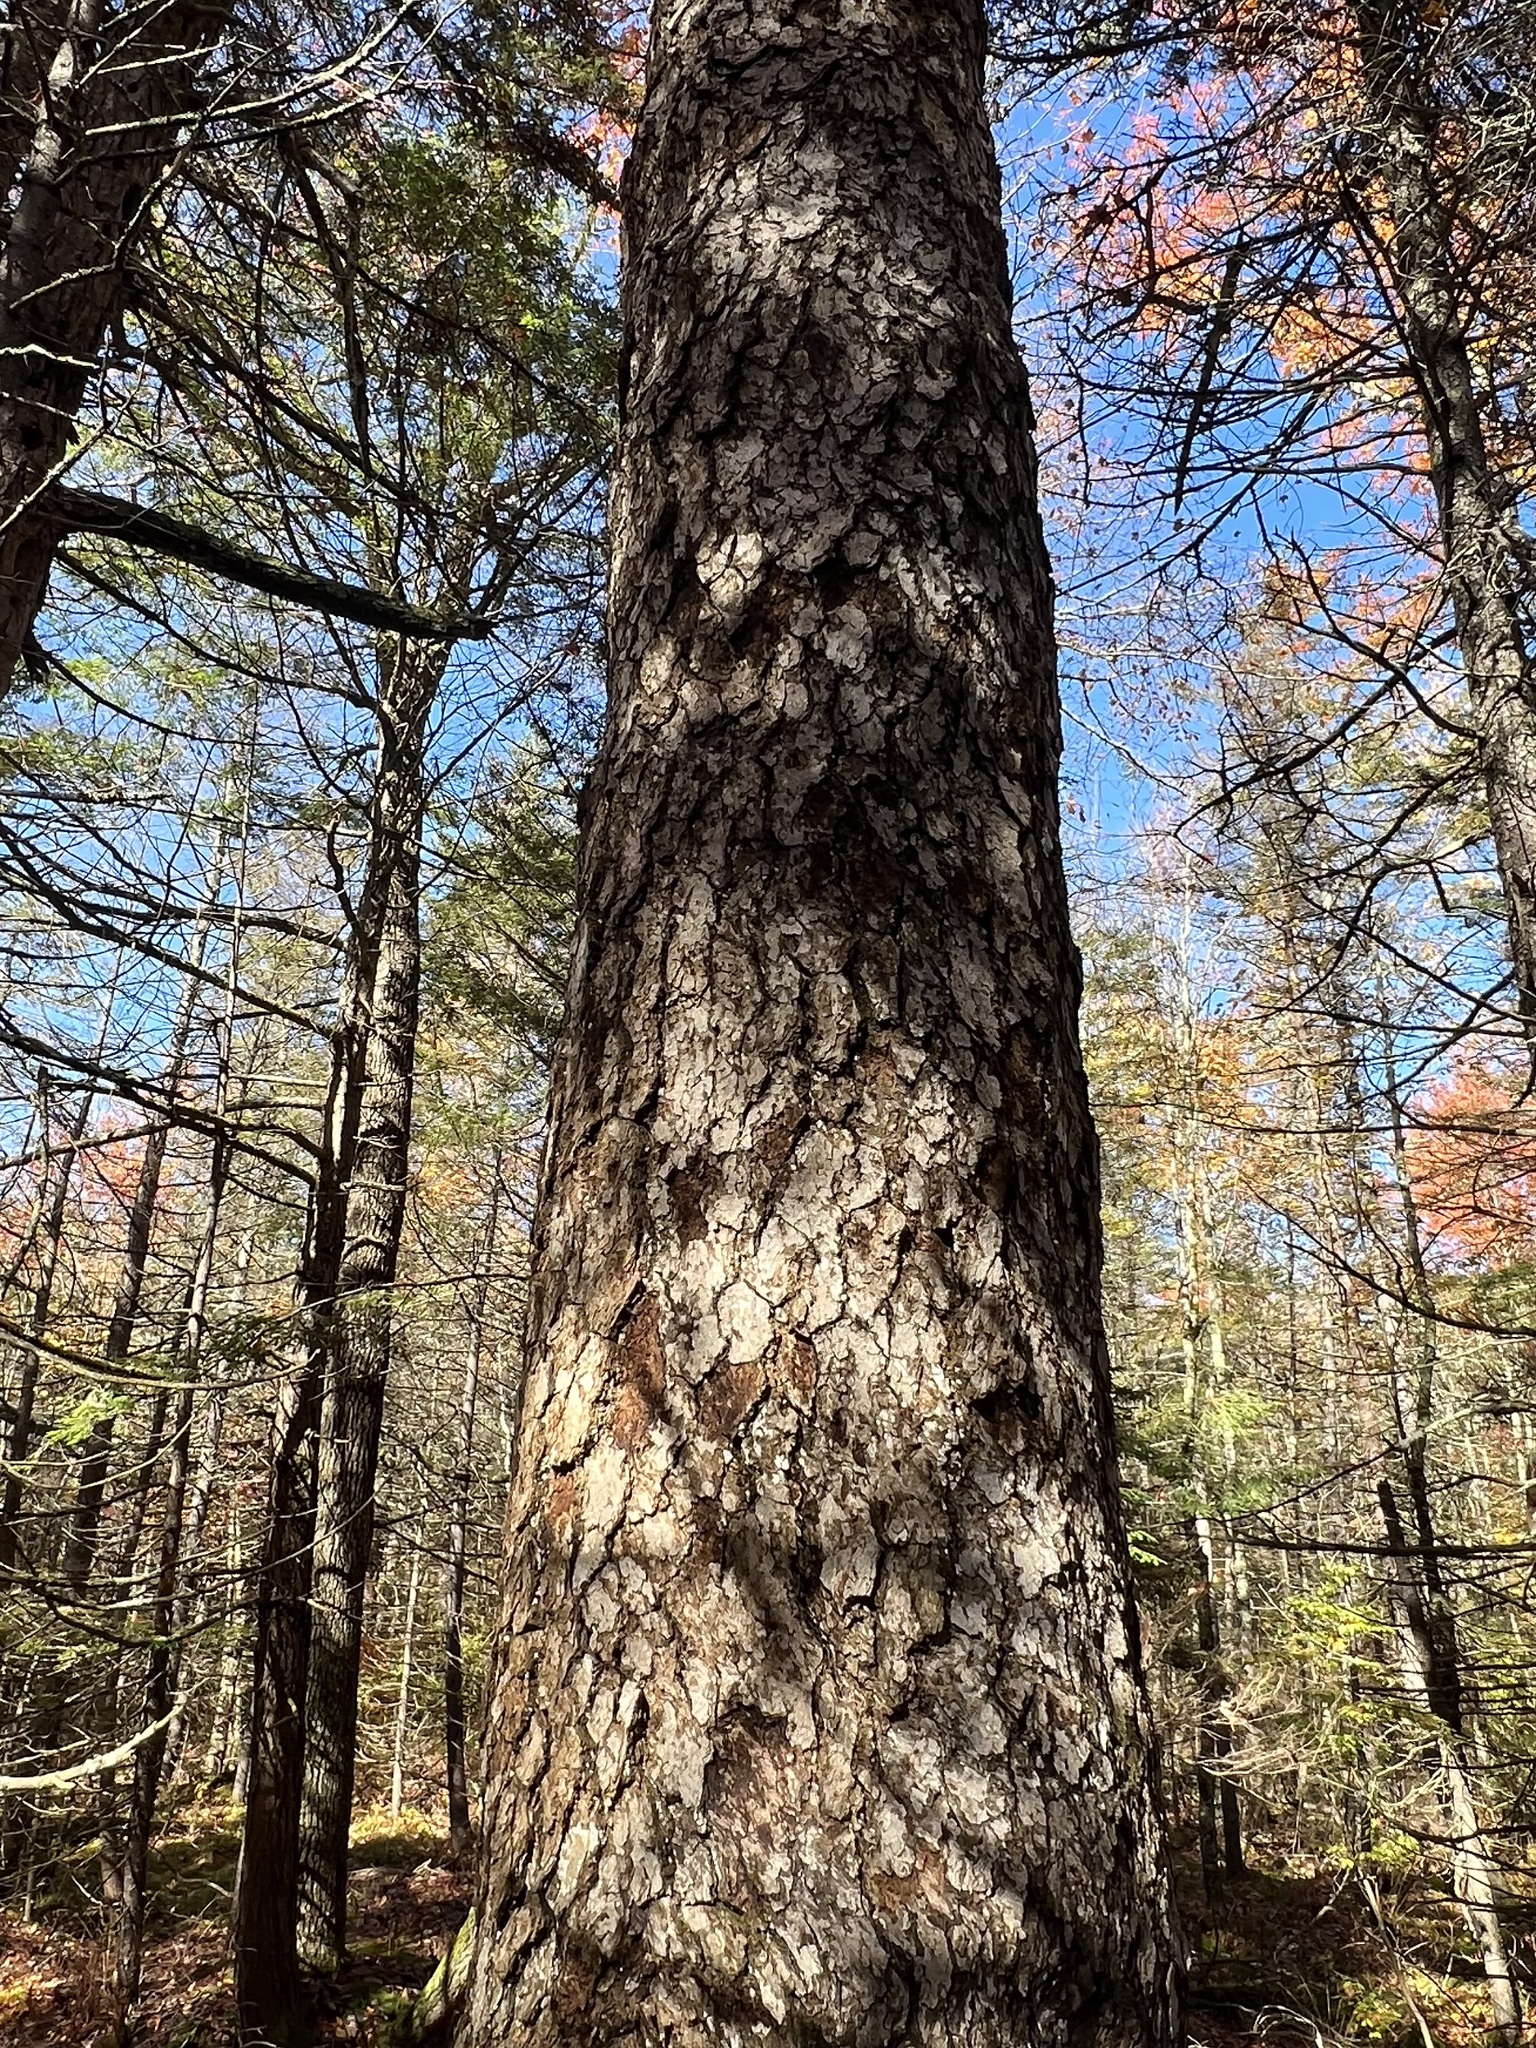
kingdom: Plantae
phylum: Tracheophyta
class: Magnoliopsida
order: Cornales
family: Nyssaceae
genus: Nyssa
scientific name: Nyssa sylvatica
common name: Black tupelo
